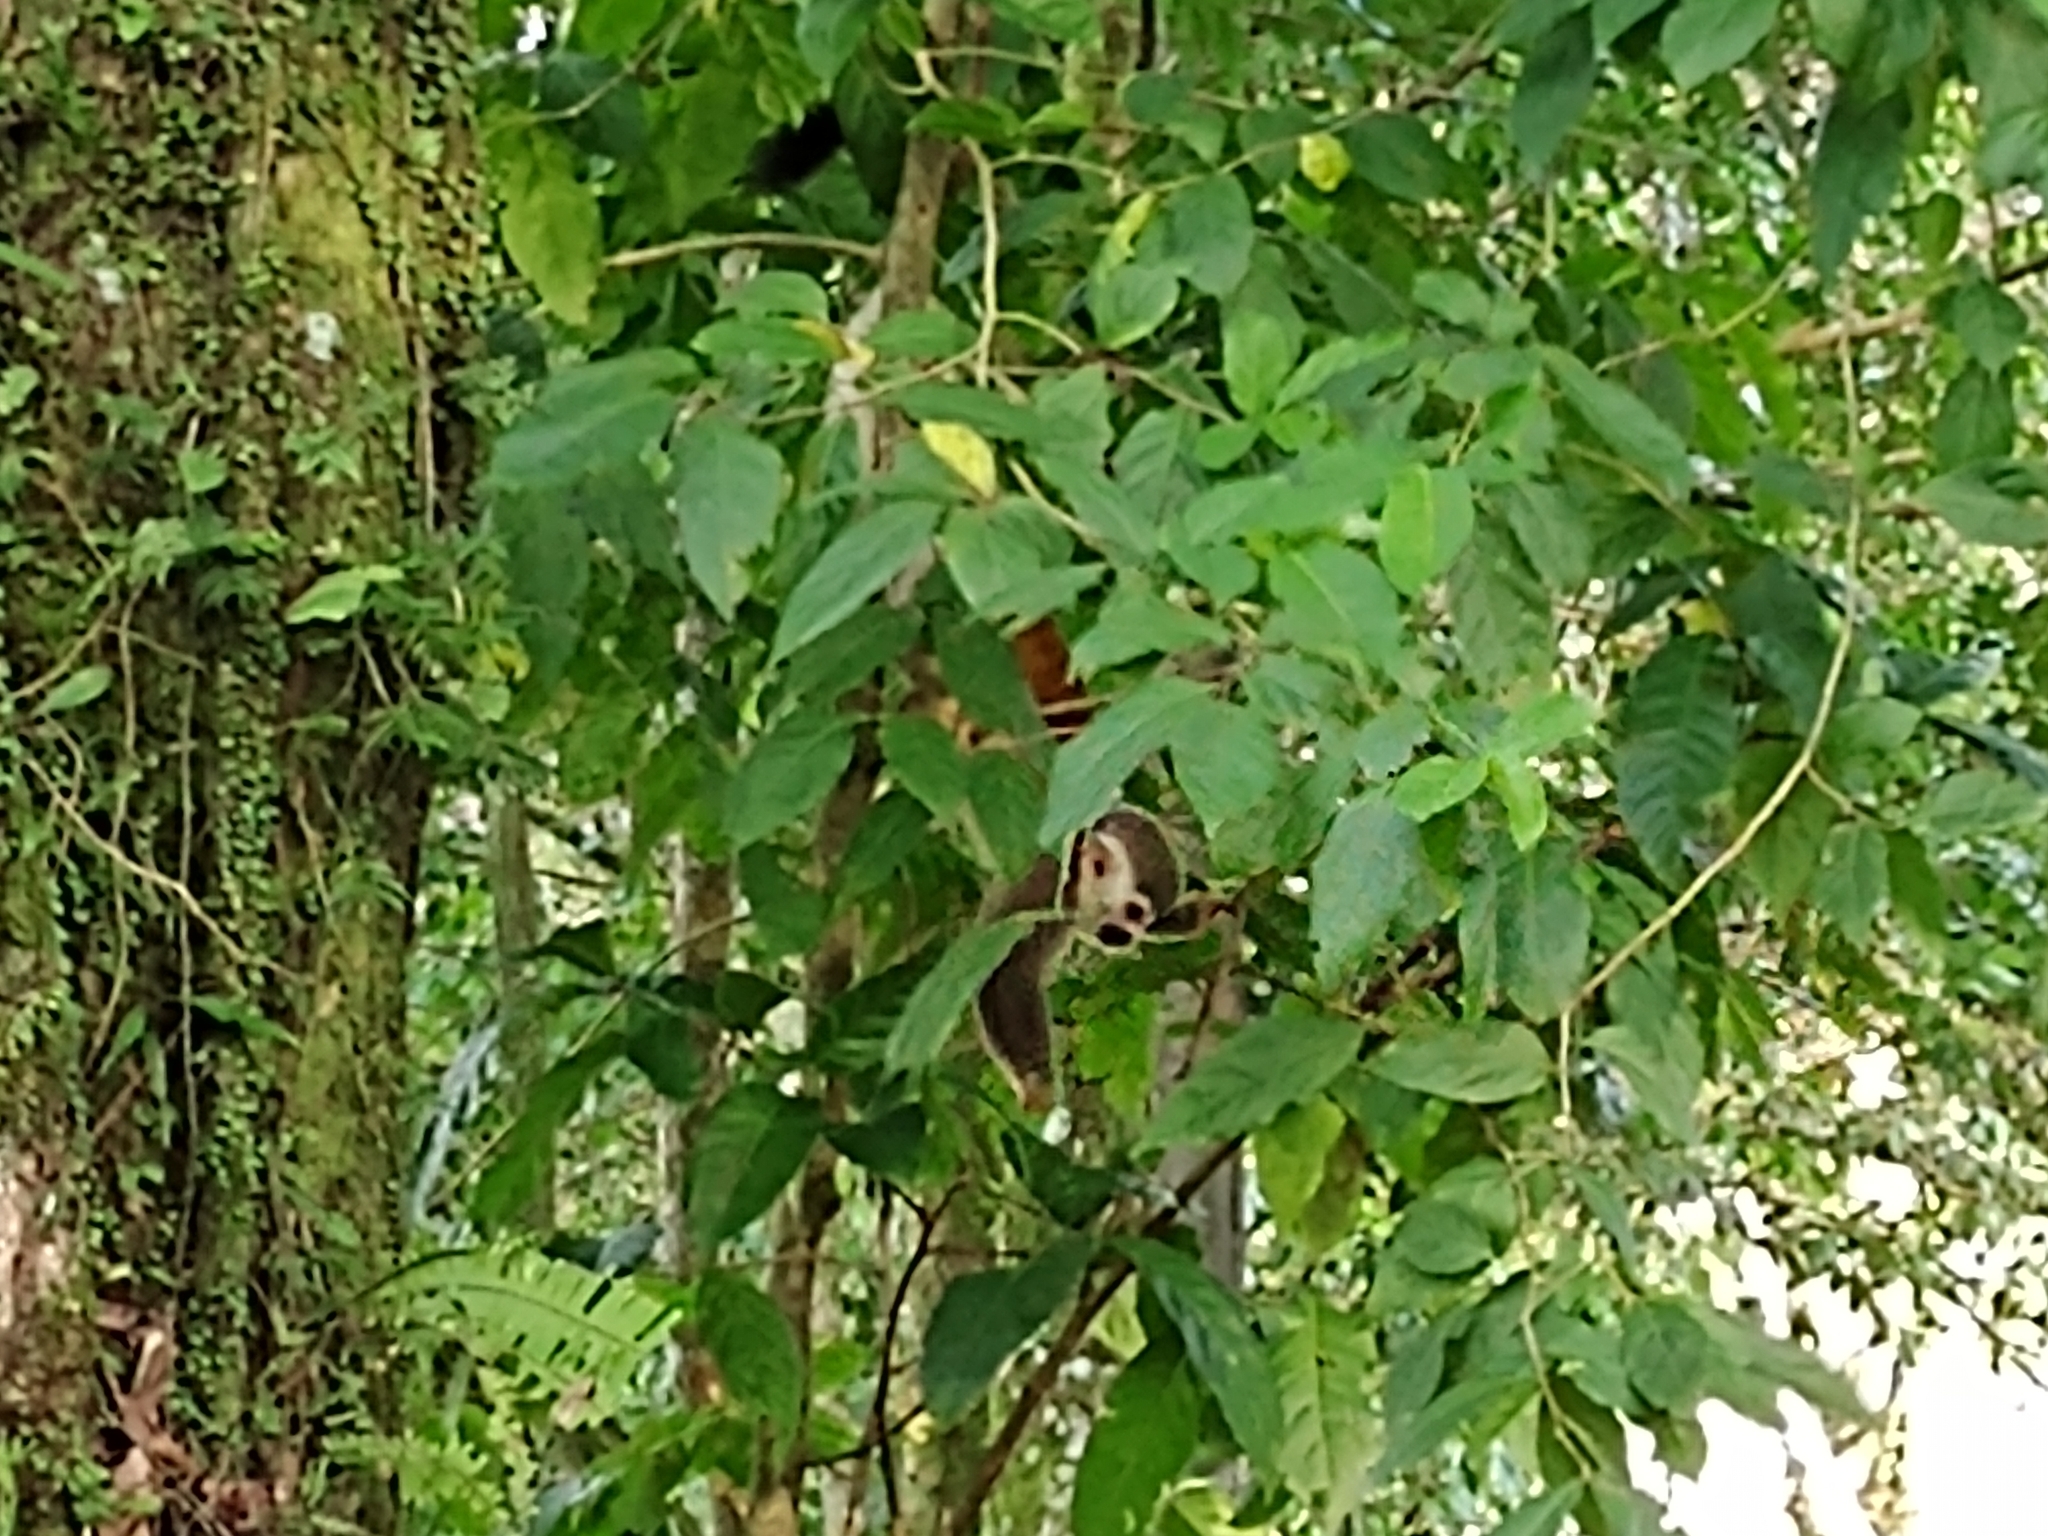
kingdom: Animalia
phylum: Chordata
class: Mammalia
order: Primates
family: Cebidae
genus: Saimiri
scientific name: Saimiri cassiquiarensis
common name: Humboldt’s squirrel monkey
